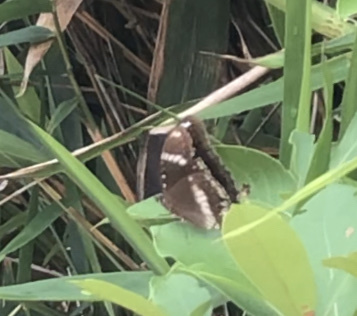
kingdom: Animalia
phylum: Arthropoda
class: Insecta
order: Lepidoptera
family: Nymphalidae
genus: Hypolimnas
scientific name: Hypolimnas bolina
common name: Great eggfly
